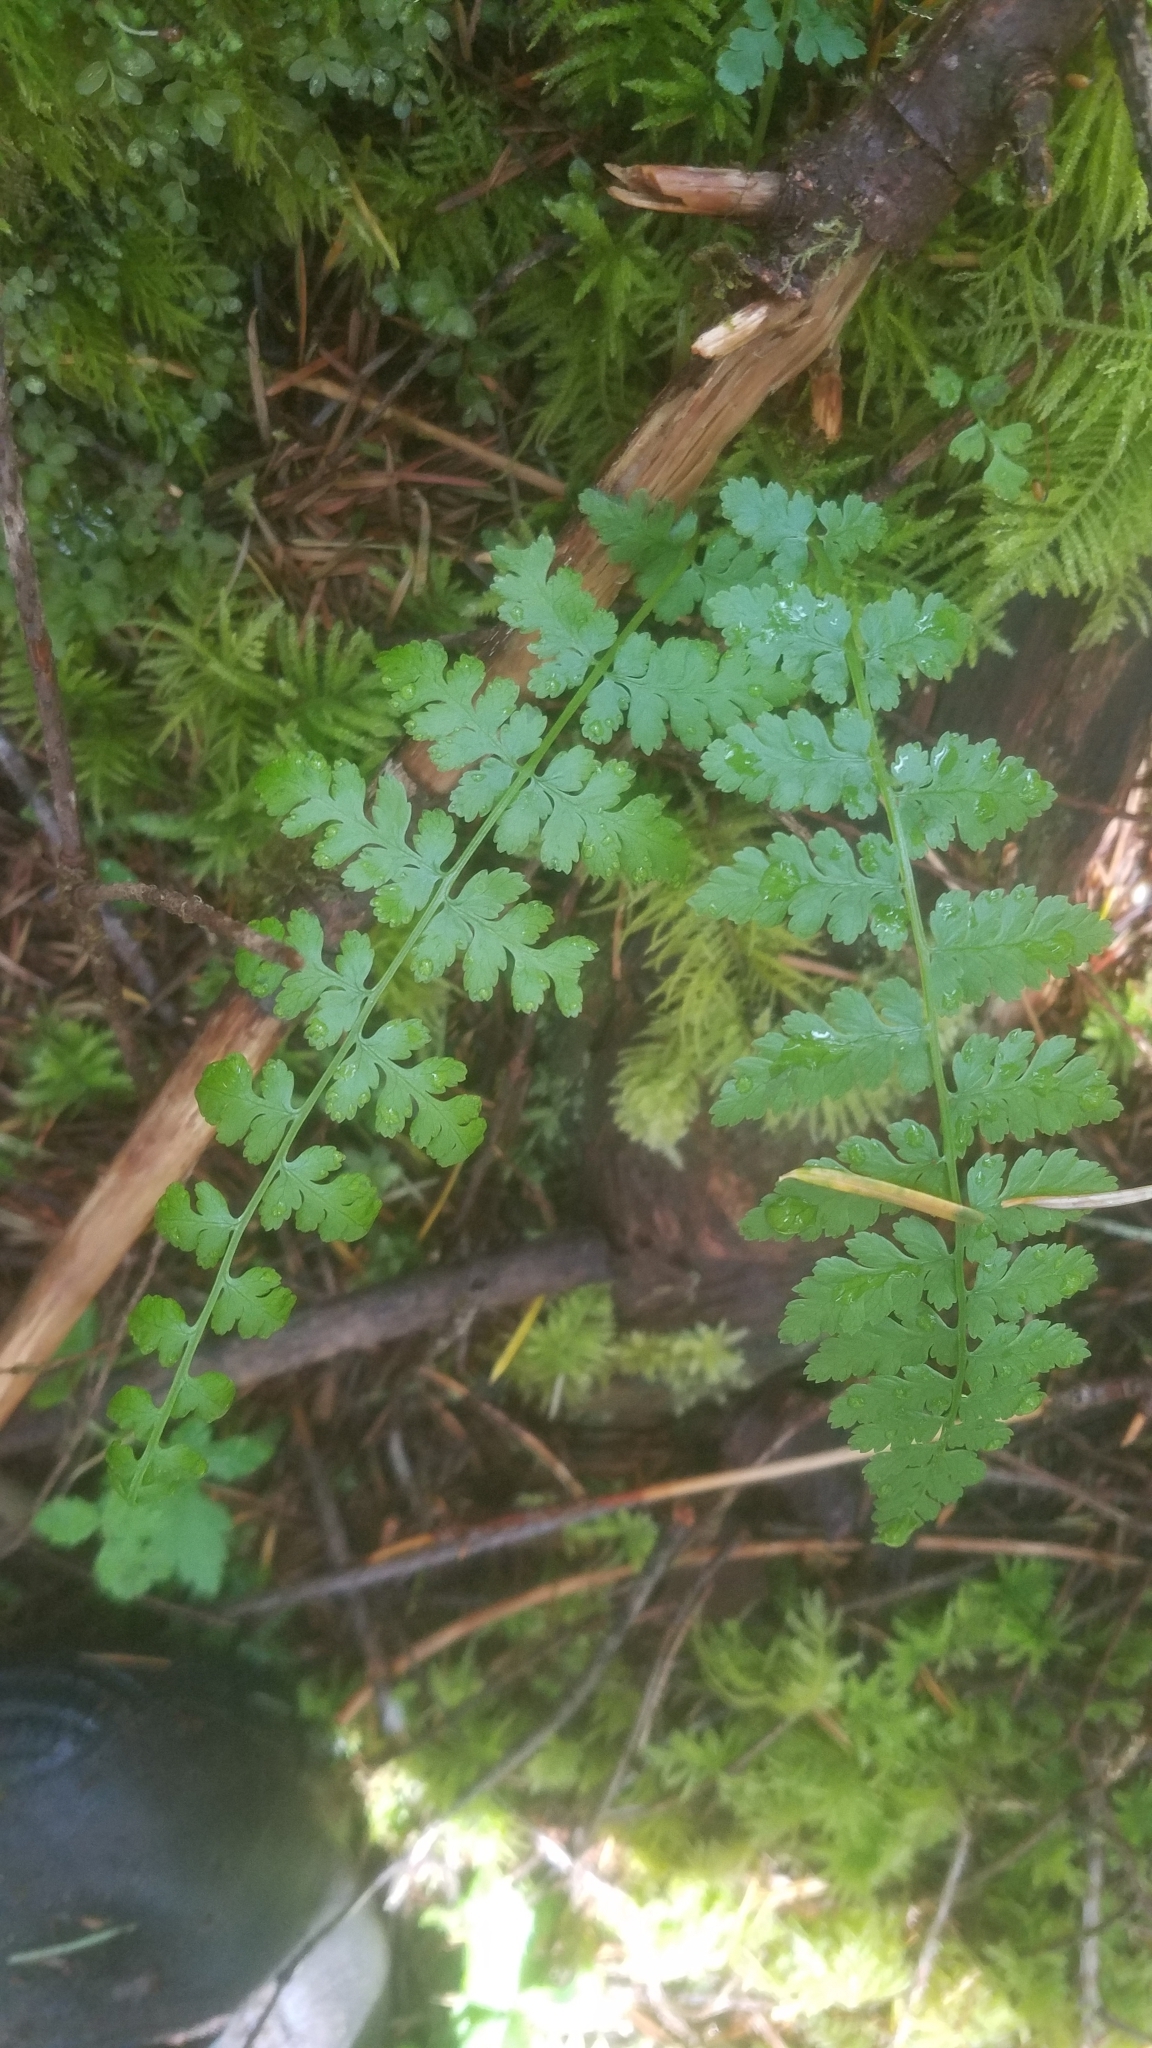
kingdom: Plantae
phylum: Tracheophyta
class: Polypodiopsida
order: Polypodiales
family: Athyriaceae
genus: Athyrium
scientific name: Athyrium cyclosorum
